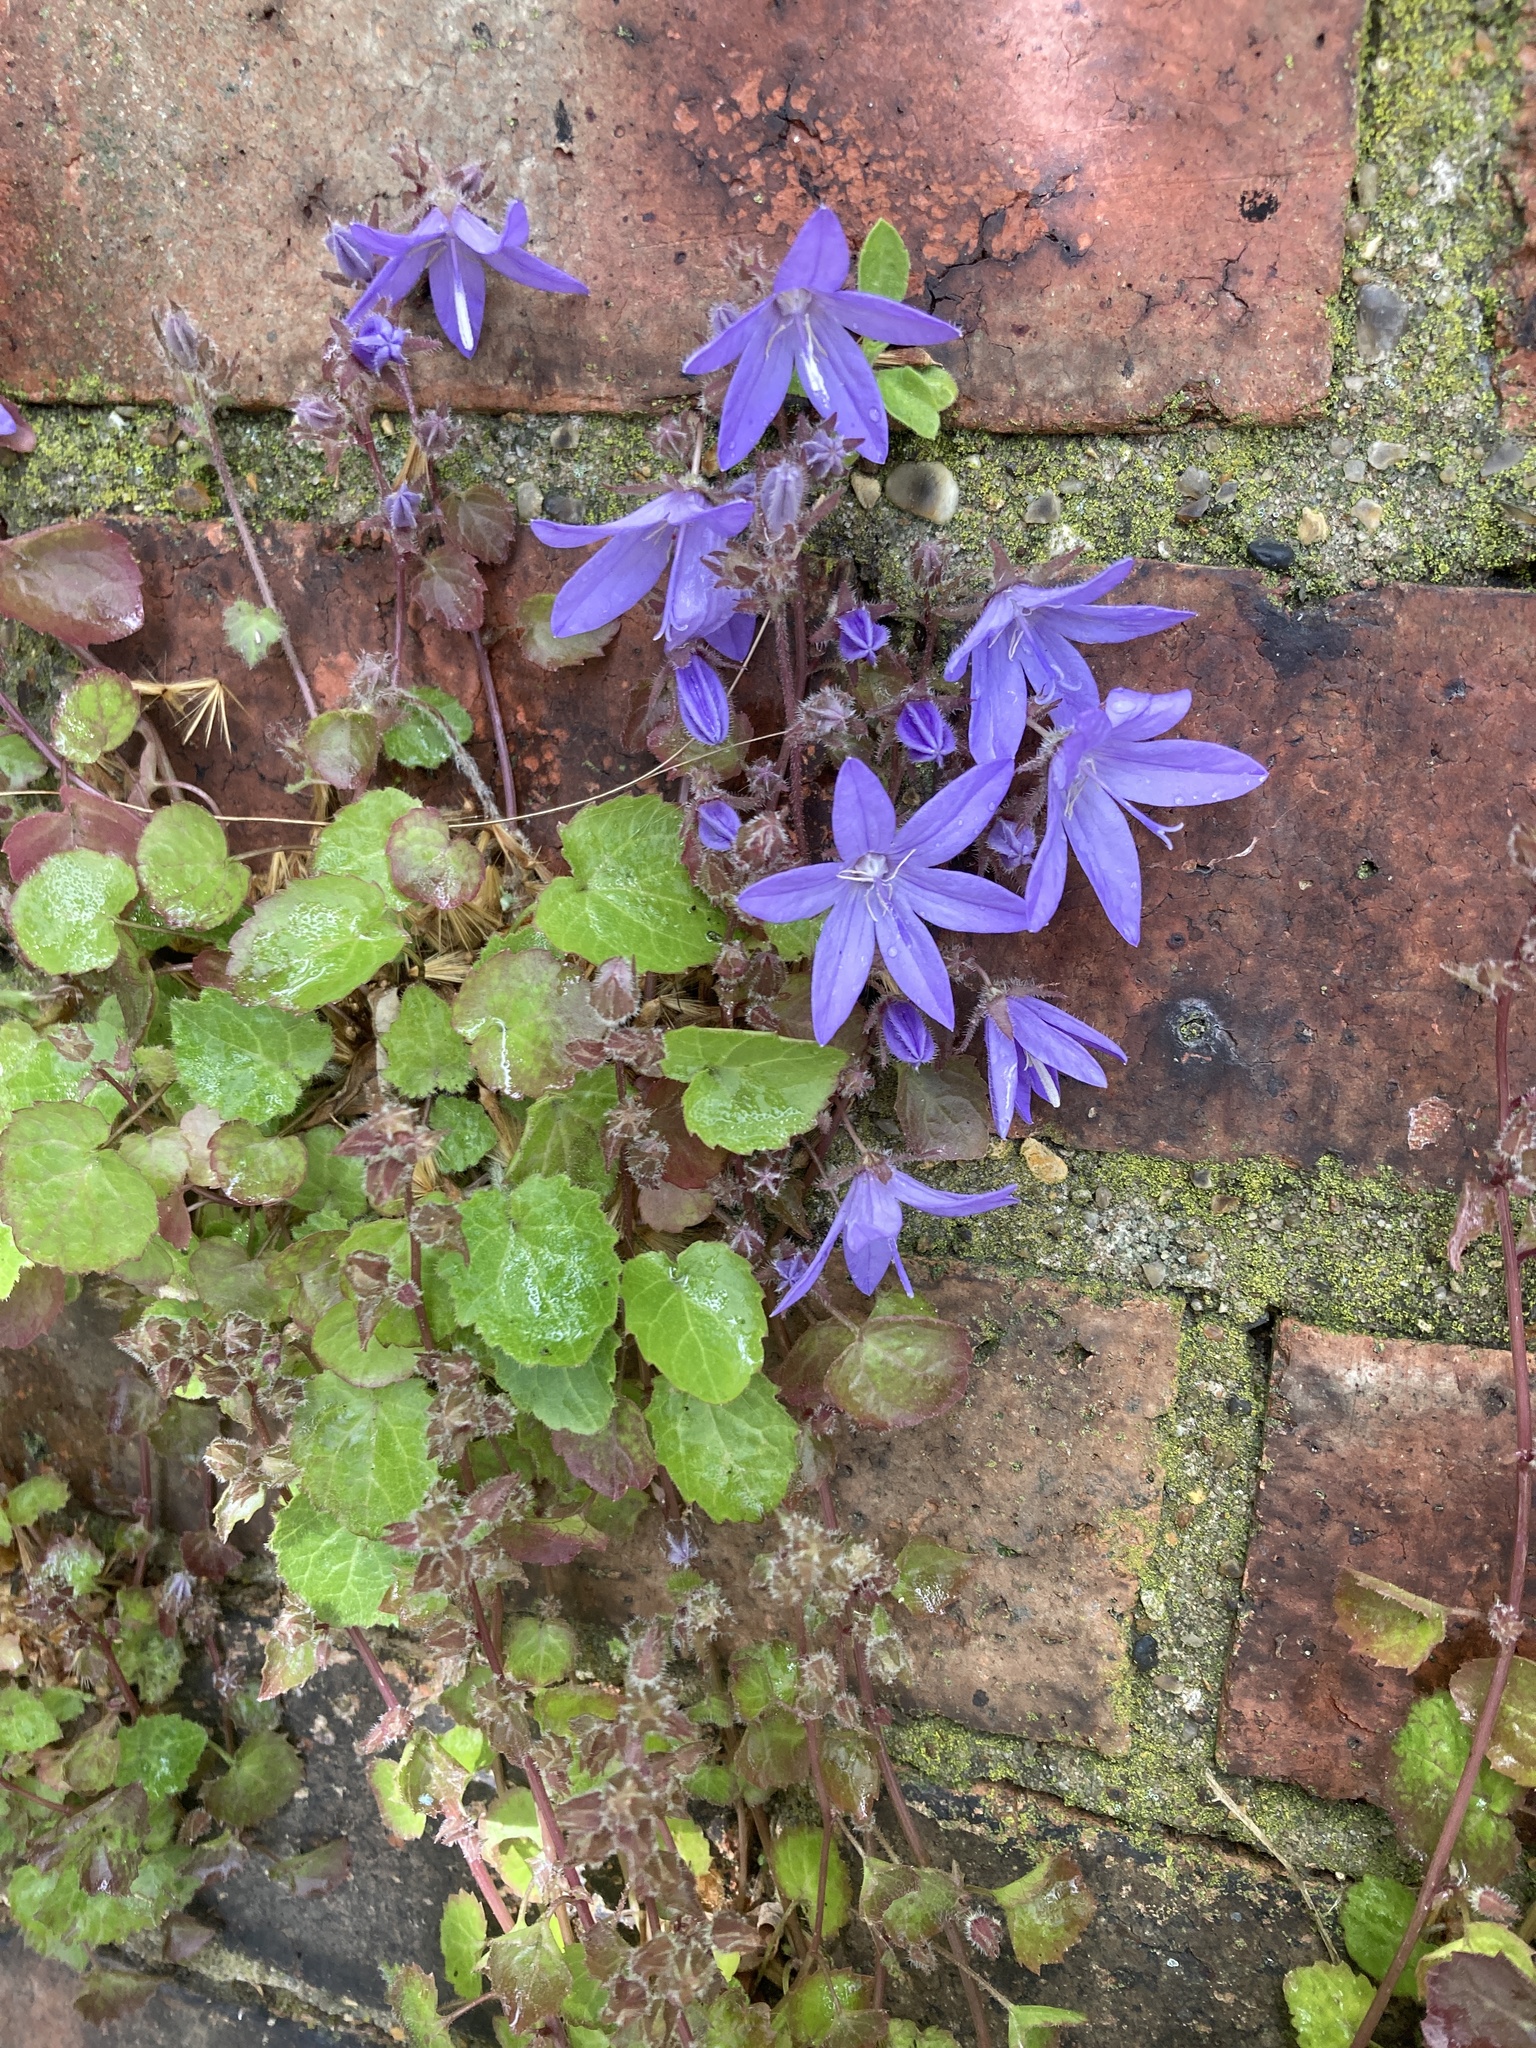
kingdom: Plantae
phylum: Tracheophyta
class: Magnoliopsida
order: Asterales
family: Campanulaceae
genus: Campanula
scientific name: Campanula poscharskyana
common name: Trailing bellflower
